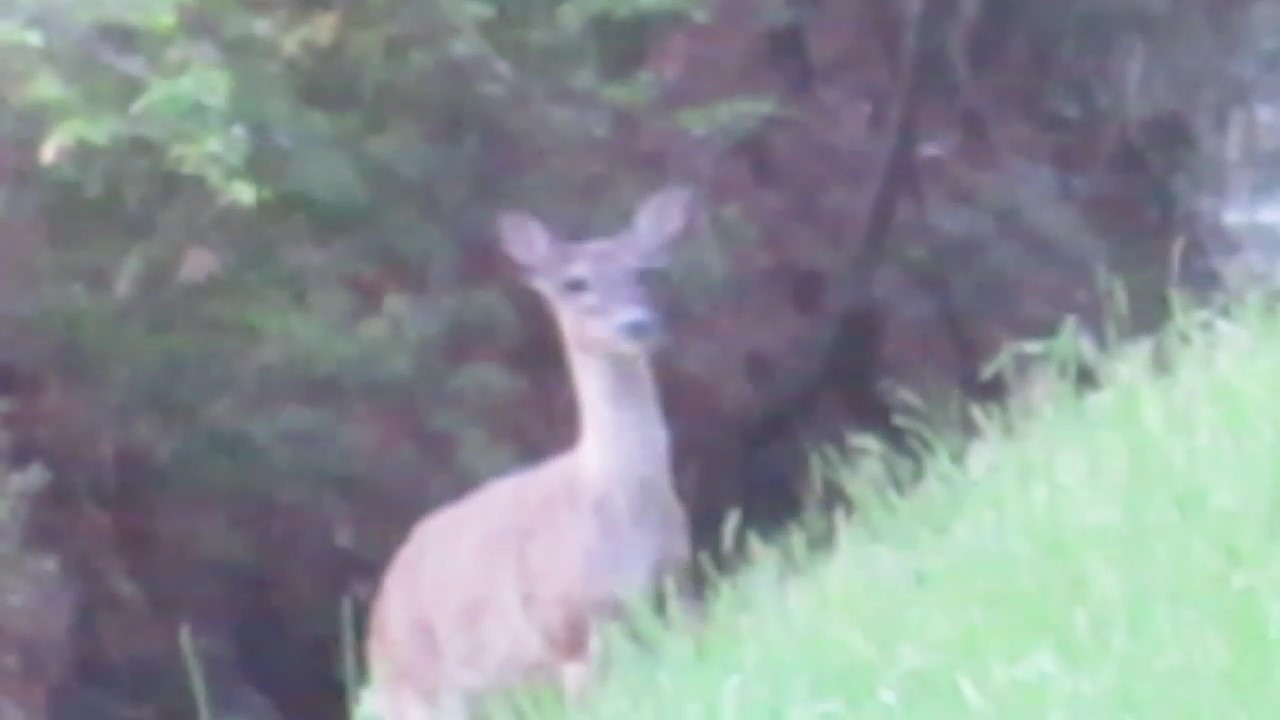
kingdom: Animalia
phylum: Chordata
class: Mammalia
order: Artiodactyla
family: Cervidae
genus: Odocoileus
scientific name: Odocoileus virginianus
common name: White-tailed deer
